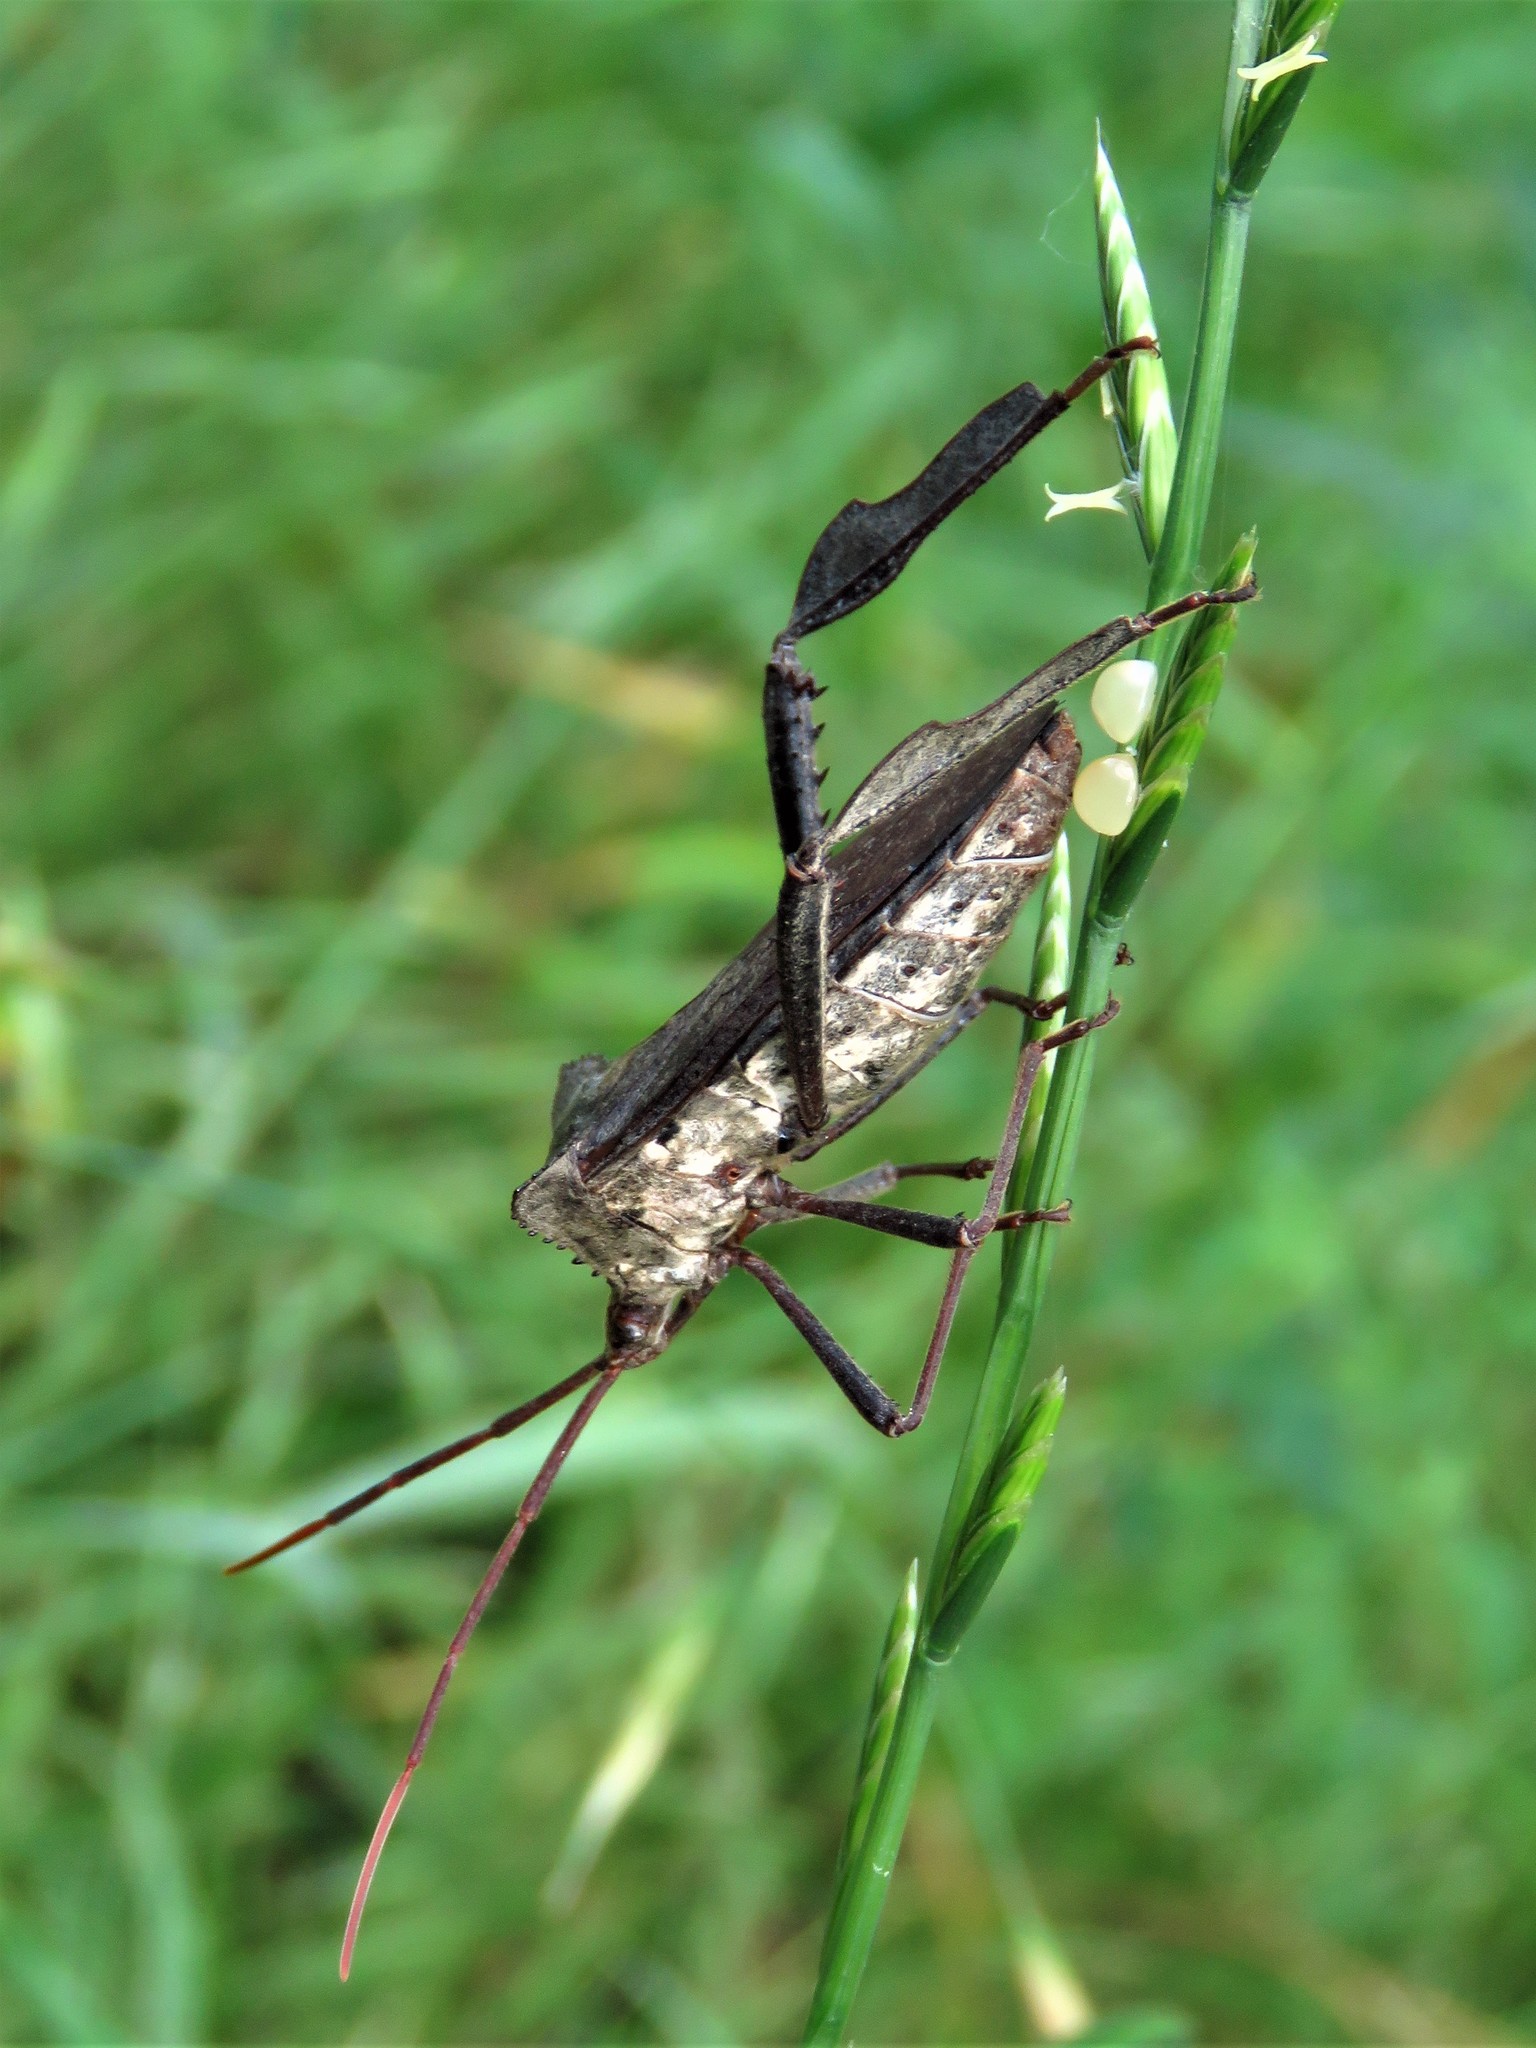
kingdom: Animalia
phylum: Arthropoda
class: Insecta
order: Hemiptera
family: Coreidae
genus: Acanthocephala
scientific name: Acanthocephala declivis
